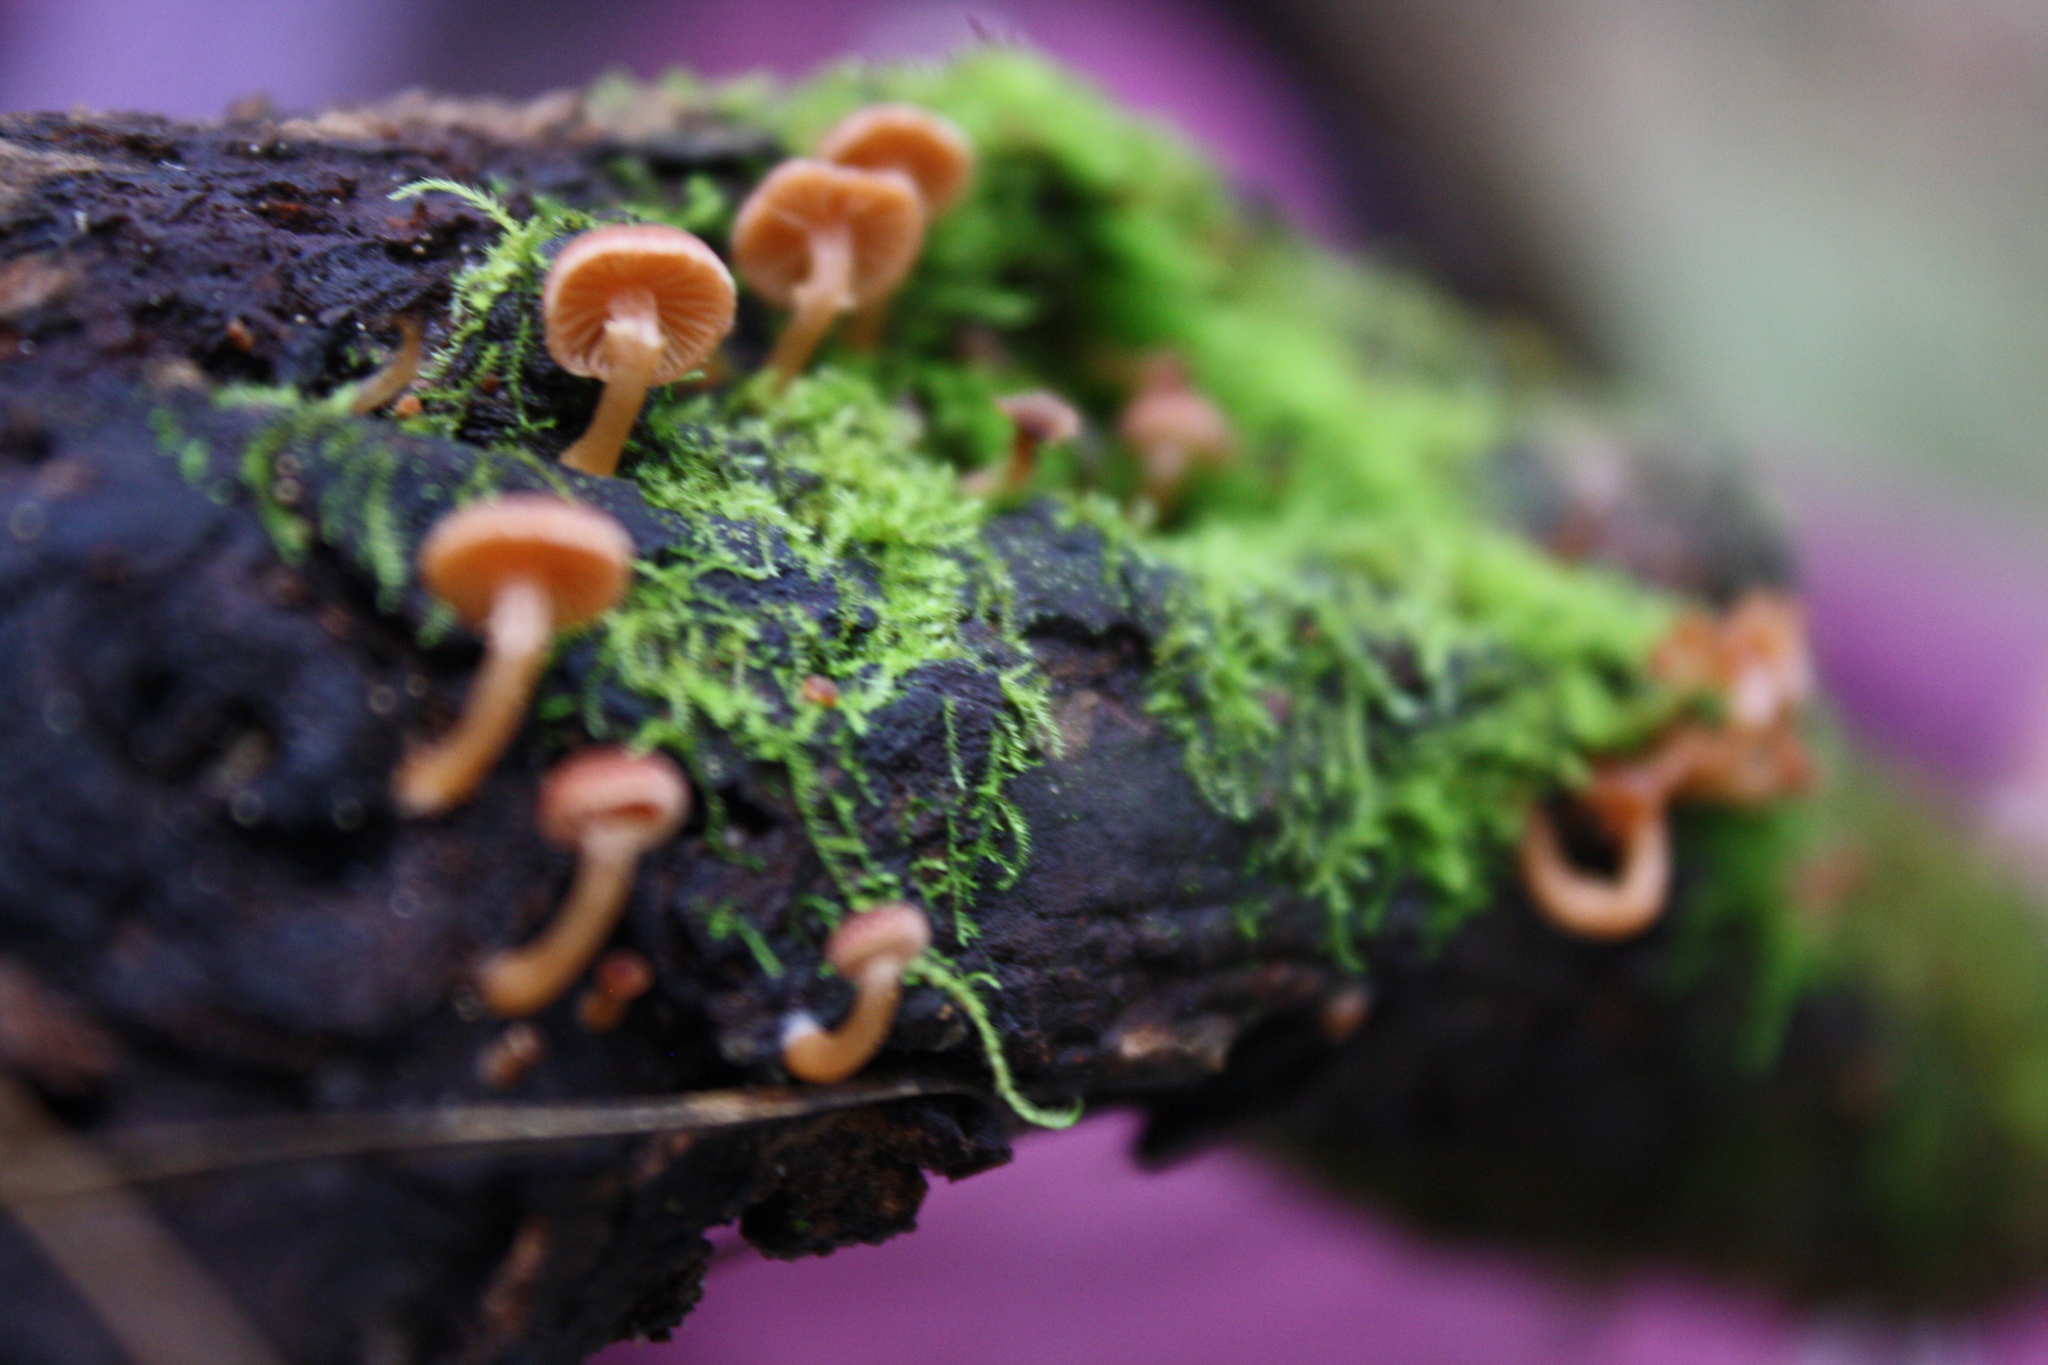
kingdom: Fungi
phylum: Basidiomycota
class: Agaricomycetes
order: Agaricales
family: Tubariaceae
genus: Tubaria
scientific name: Tubaria furfuracea
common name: Scurfy twiglet
